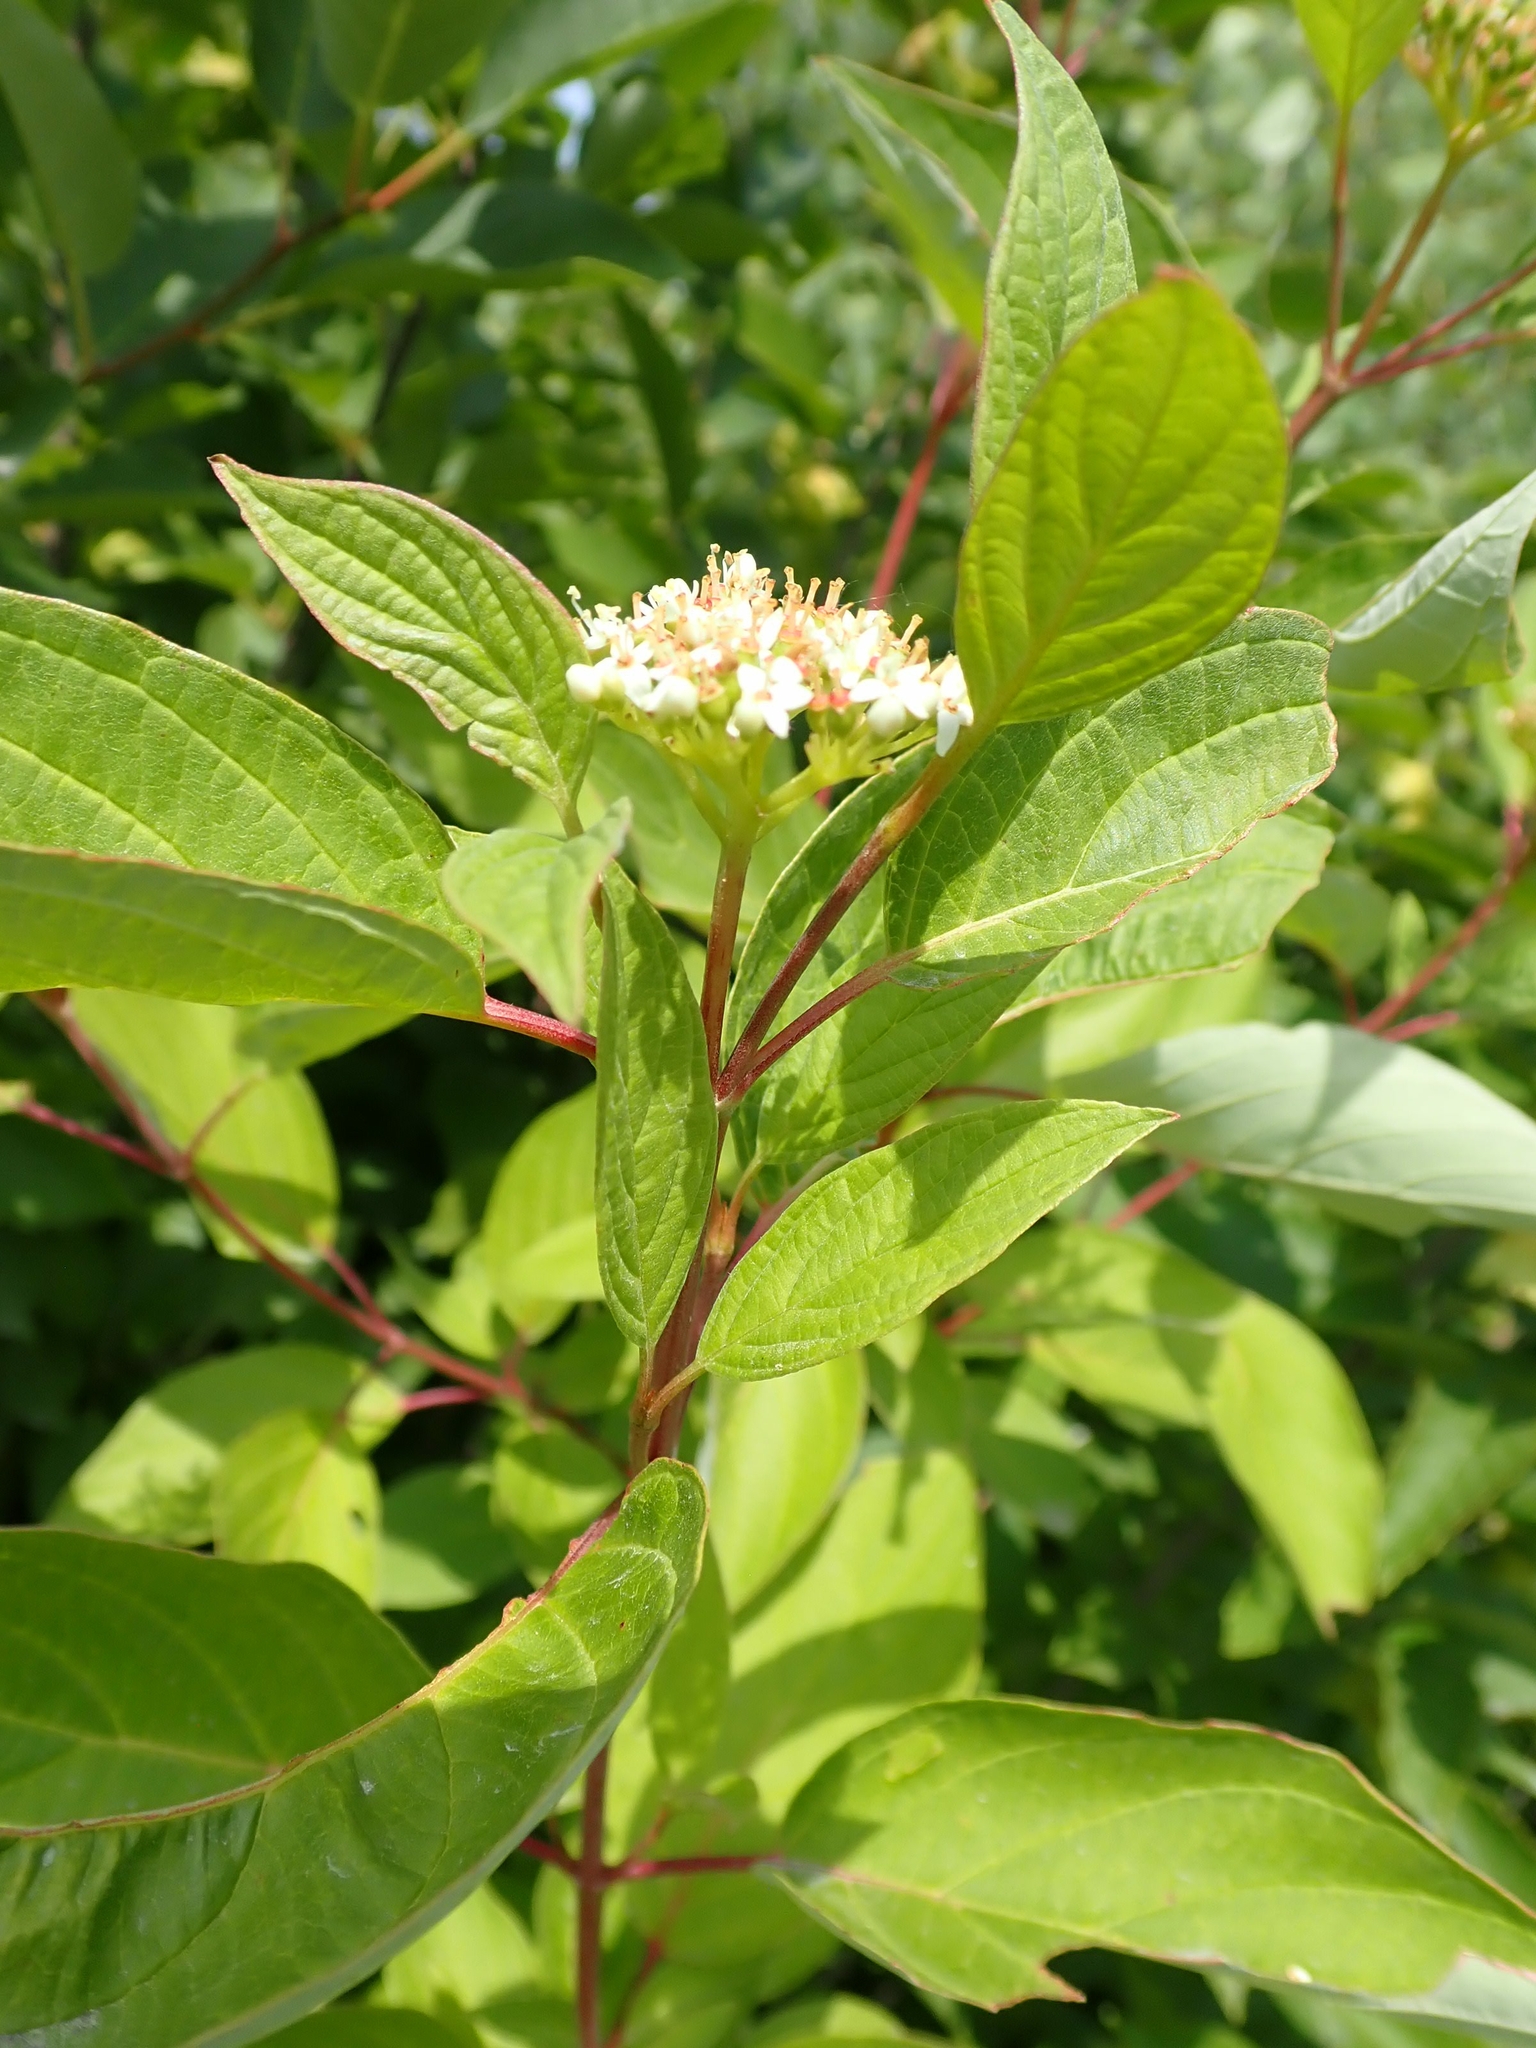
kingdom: Plantae
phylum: Tracheophyta
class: Magnoliopsida
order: Cornales
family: Cornaceae
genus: Cornus
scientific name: Cornus sericea
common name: Red-osier dogwood
